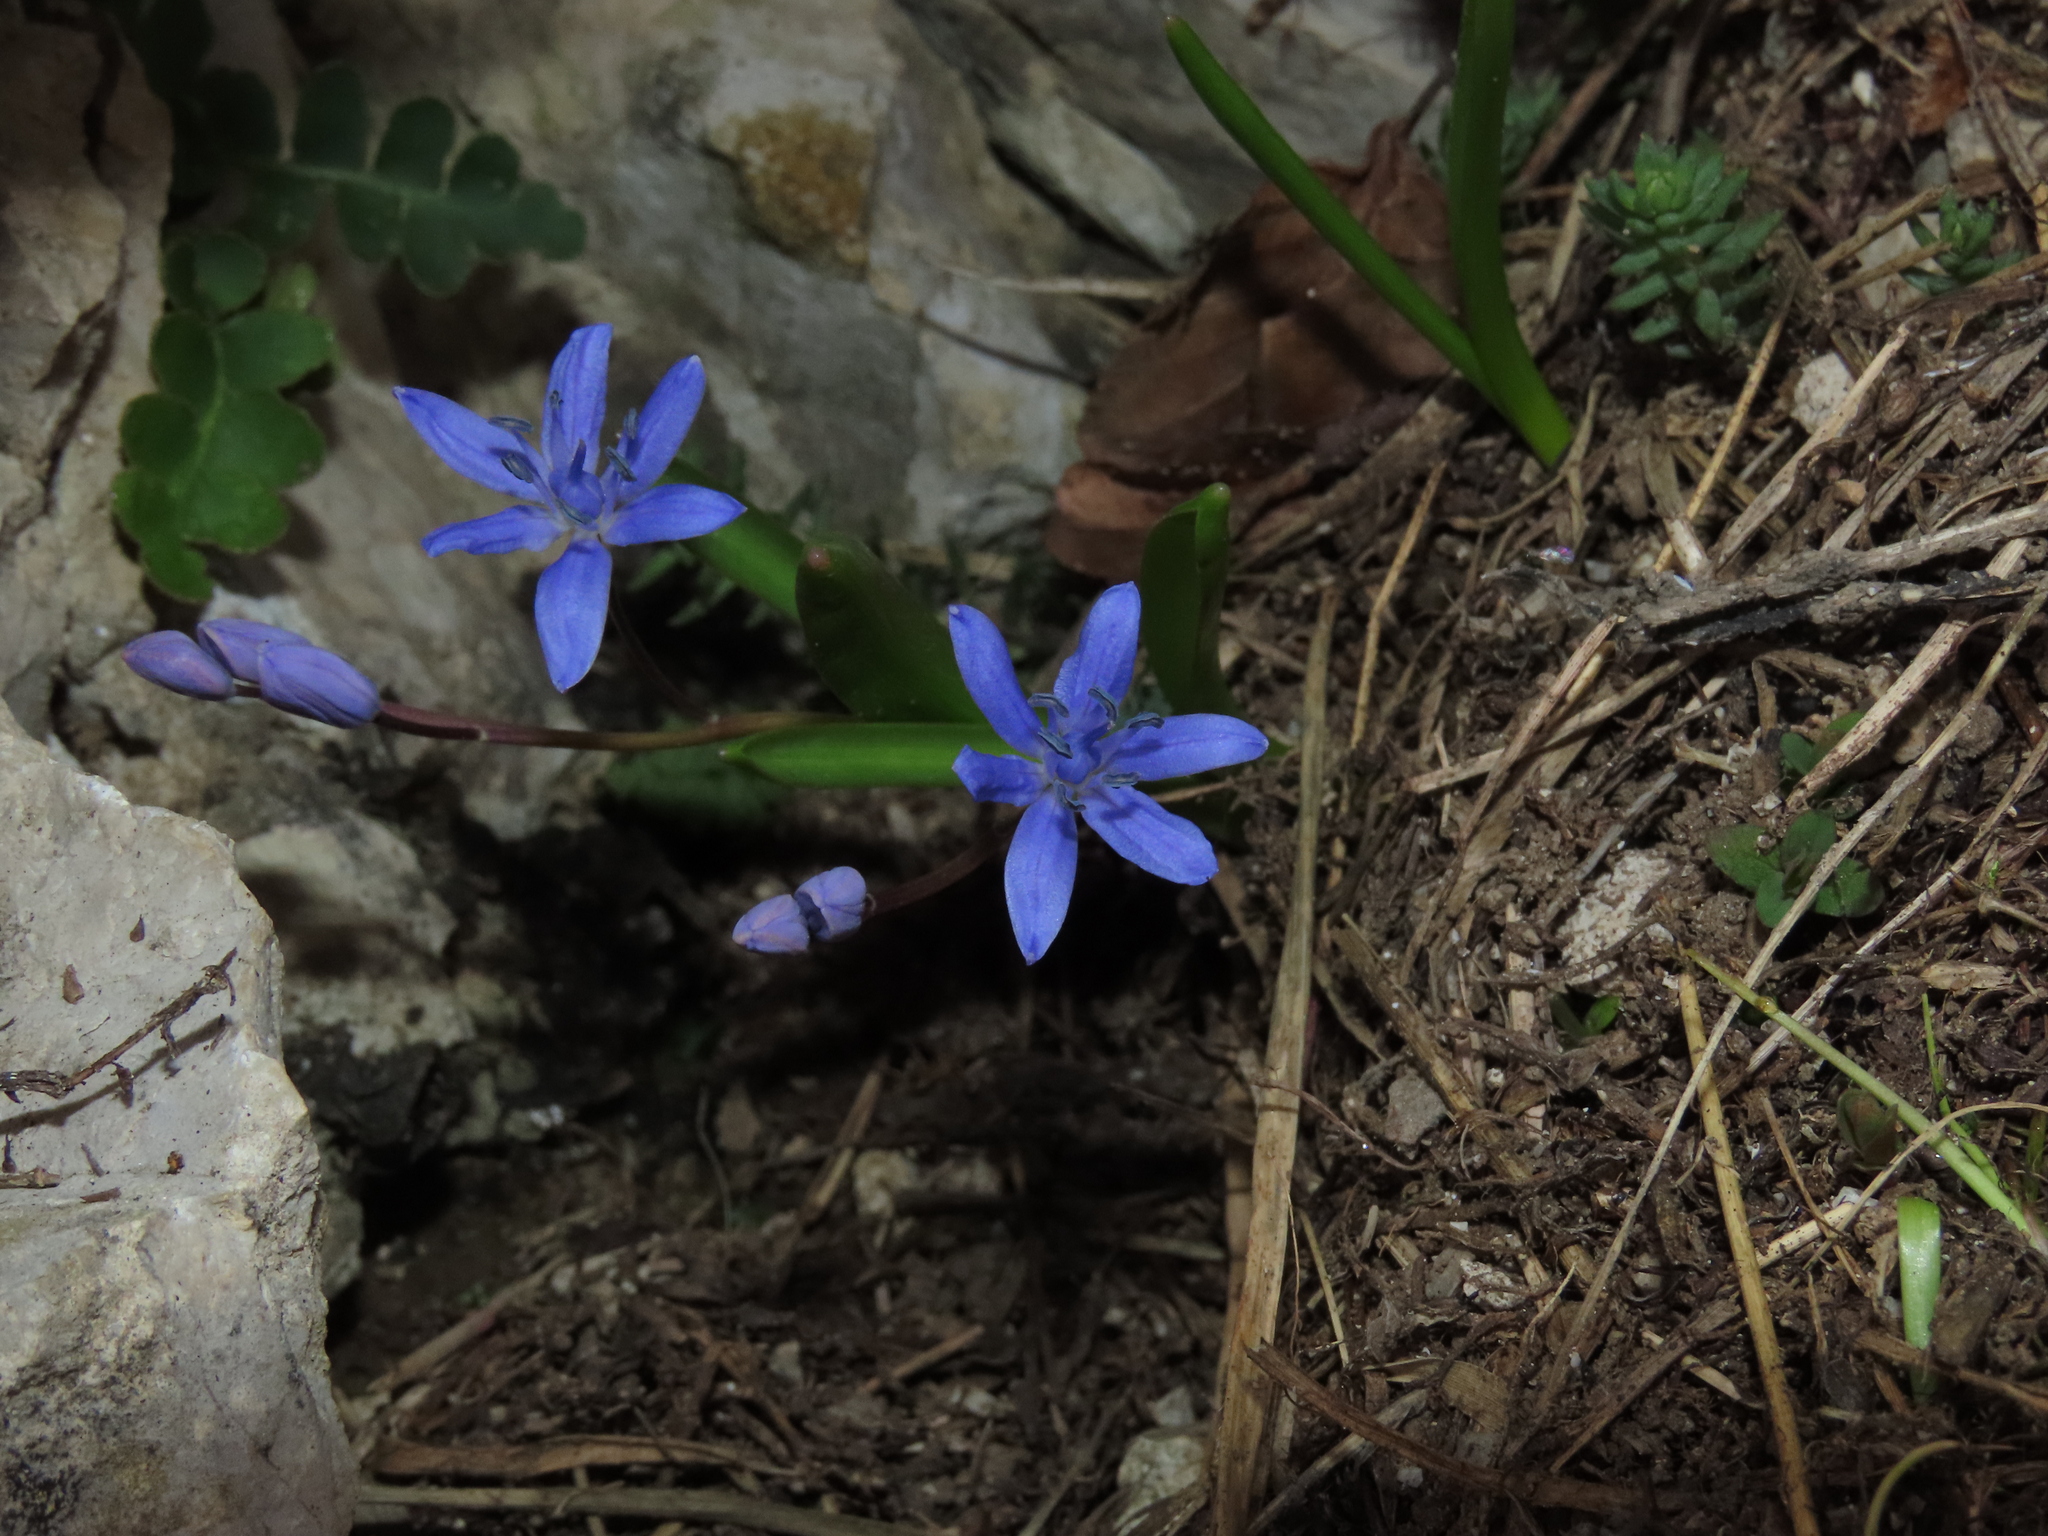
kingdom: Plantae
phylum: Tracheophyta
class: Liliopsida
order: Asparagales
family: Asparagaceae
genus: Scilla
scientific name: Scilla bifolia
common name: Alpine squill
